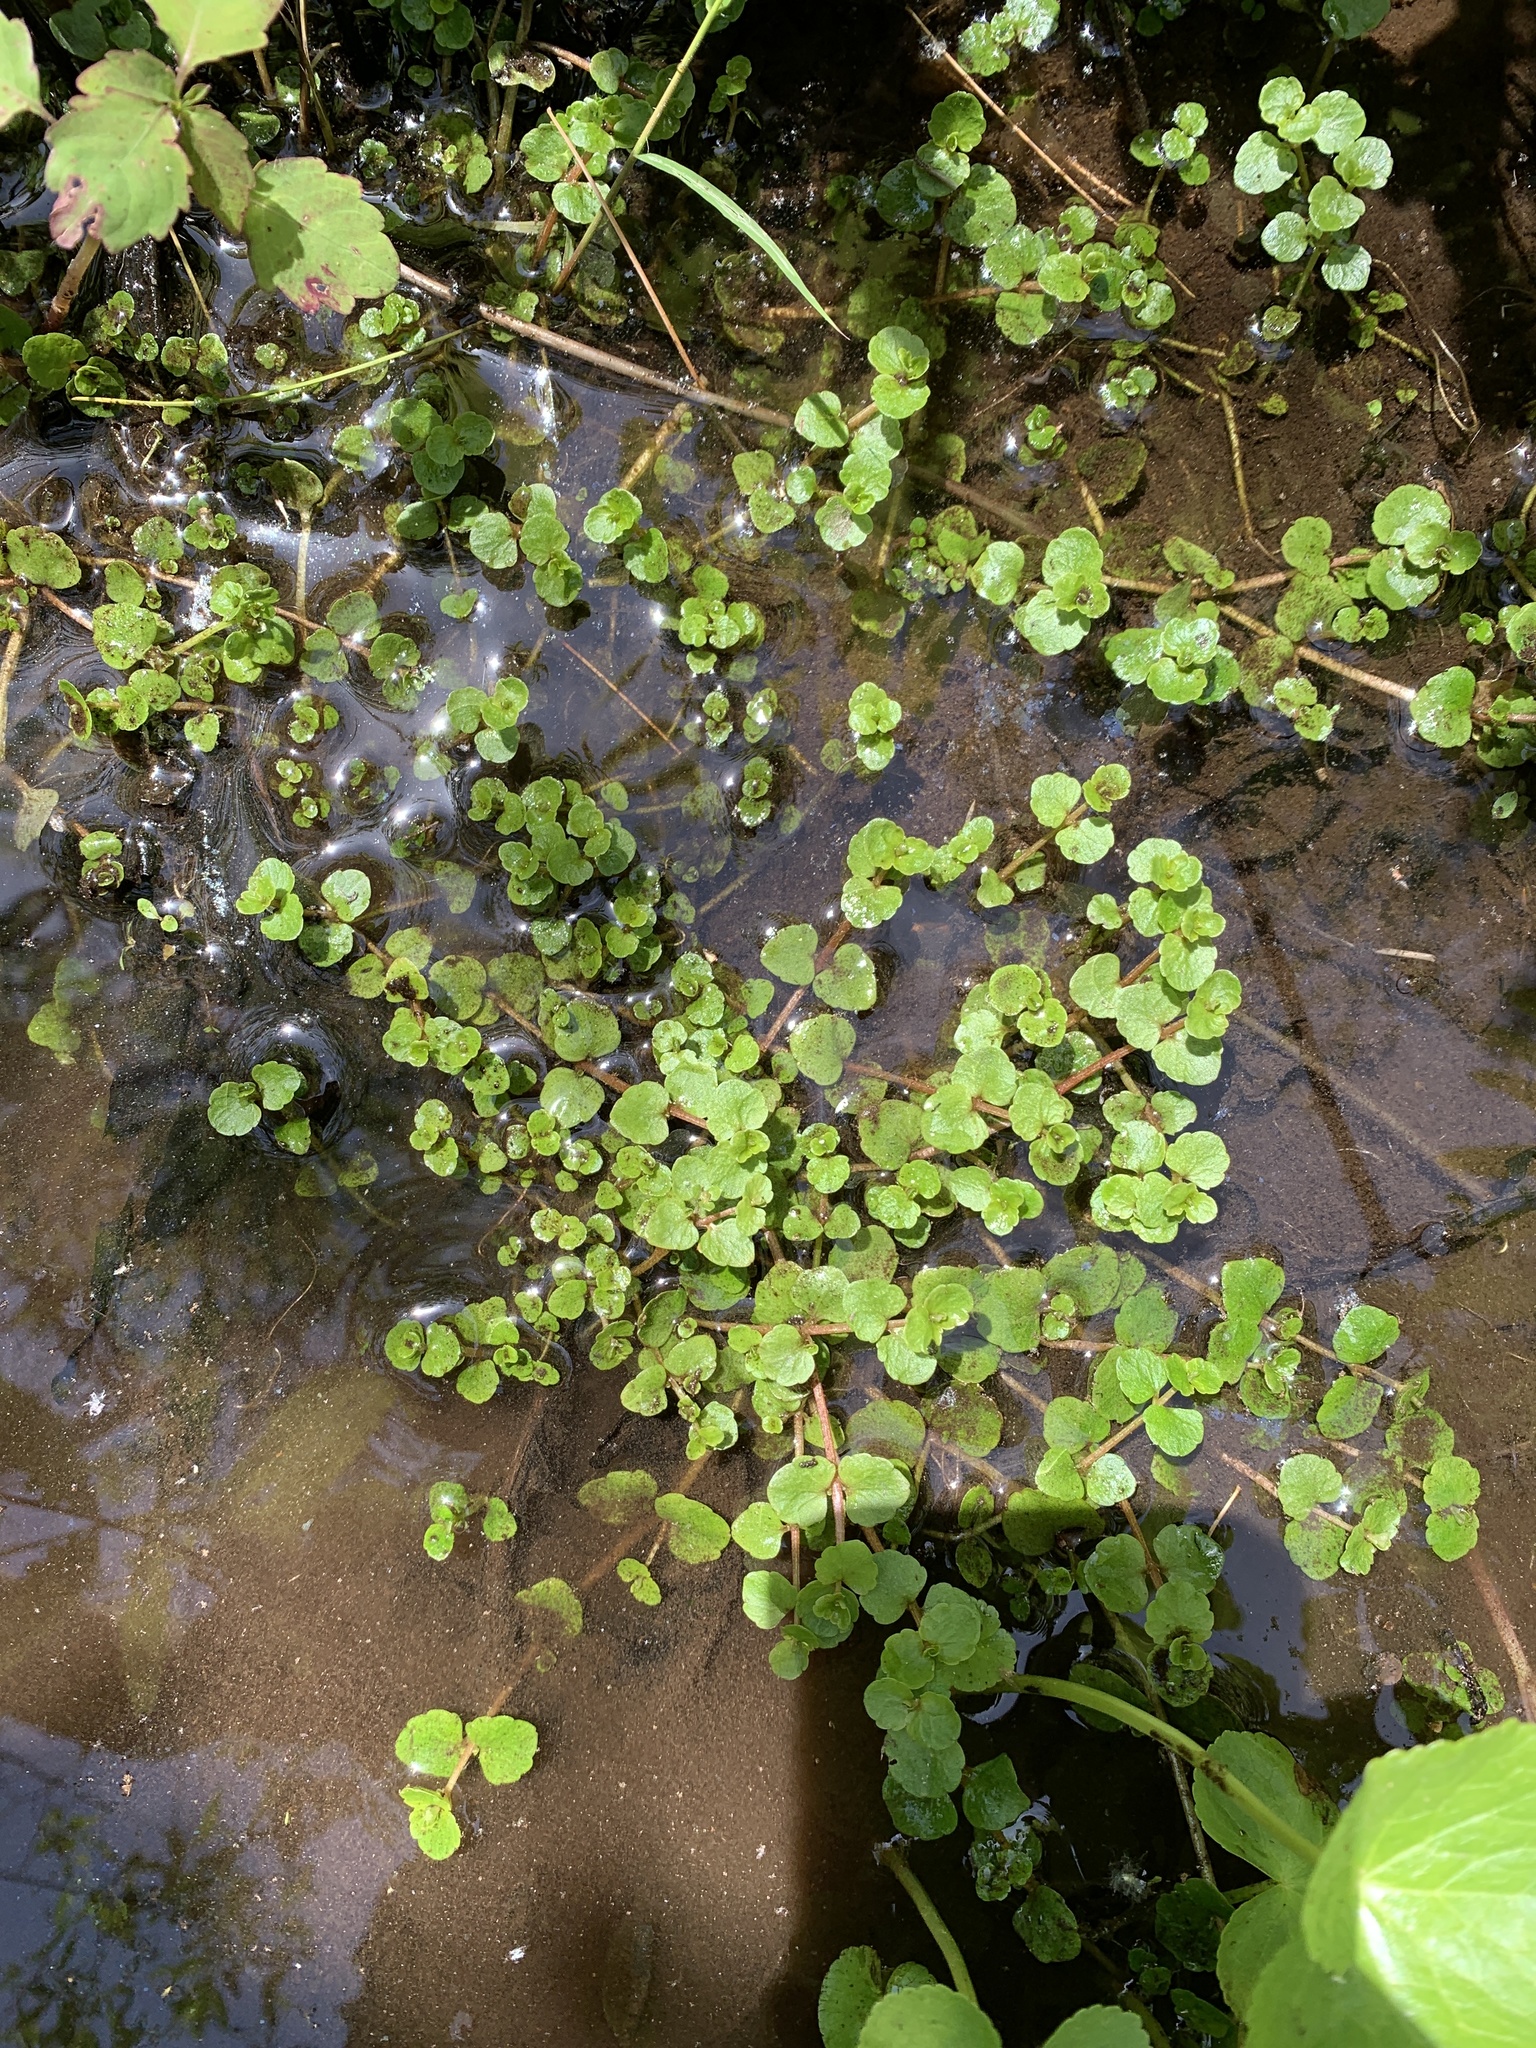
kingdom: Plantae
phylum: Tracheophyta
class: Magnoliopsida
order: Saxifragales
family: Saxifragaceae
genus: Chrysosplenium
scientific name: Chrysosplenium americanum
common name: American golden-saxifrage
